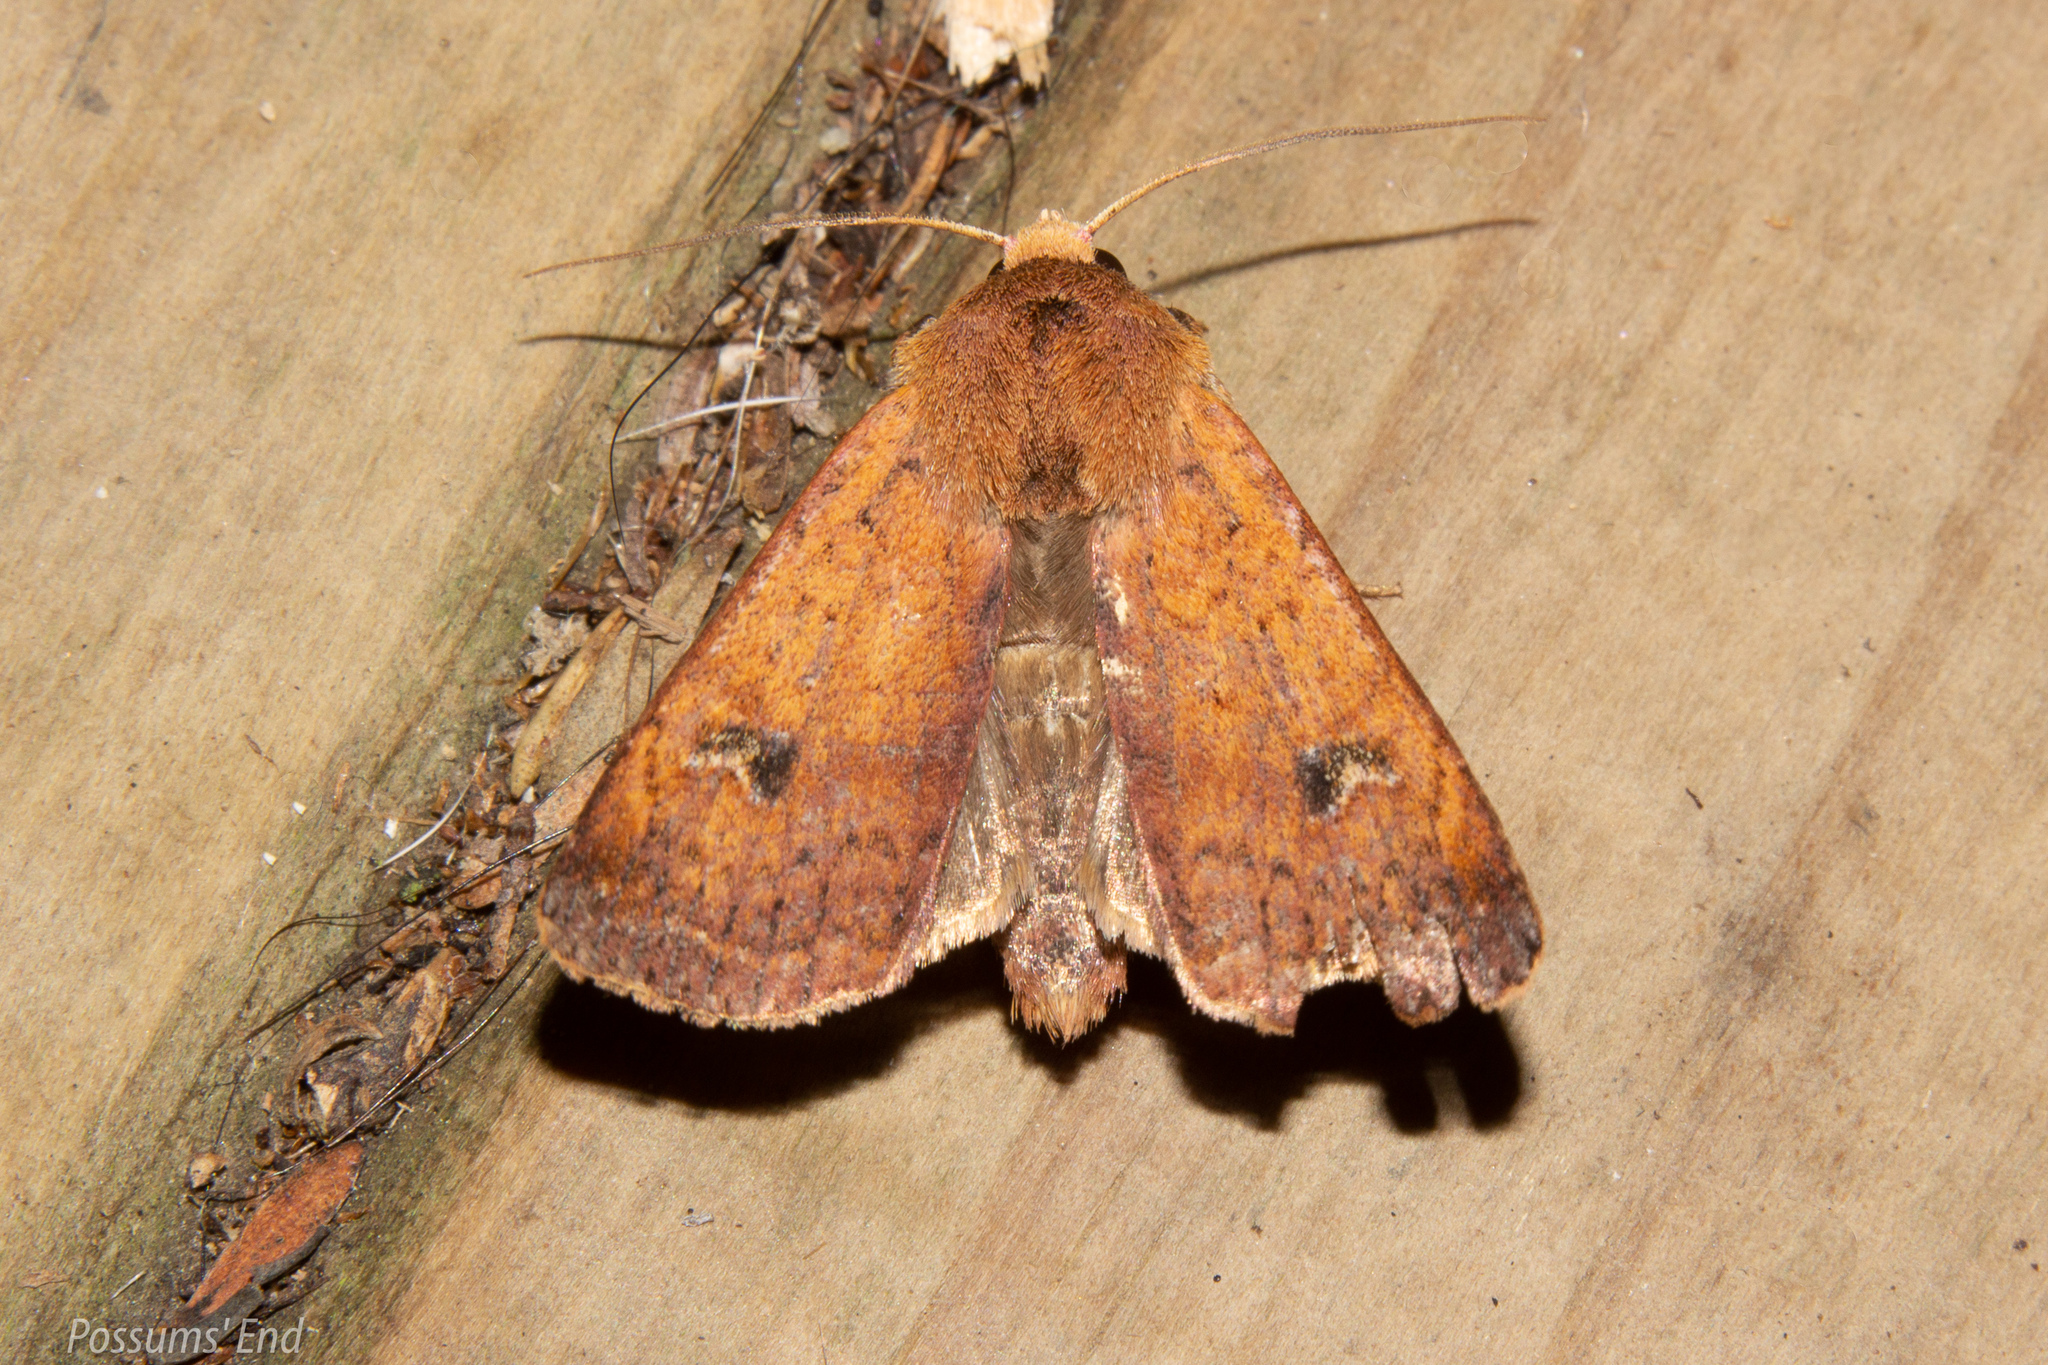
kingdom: Animalia
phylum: Arthropoda
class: Insecta
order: Lepidoptera
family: Noctuidae
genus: Diarsia
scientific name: Diarsia intermixta
